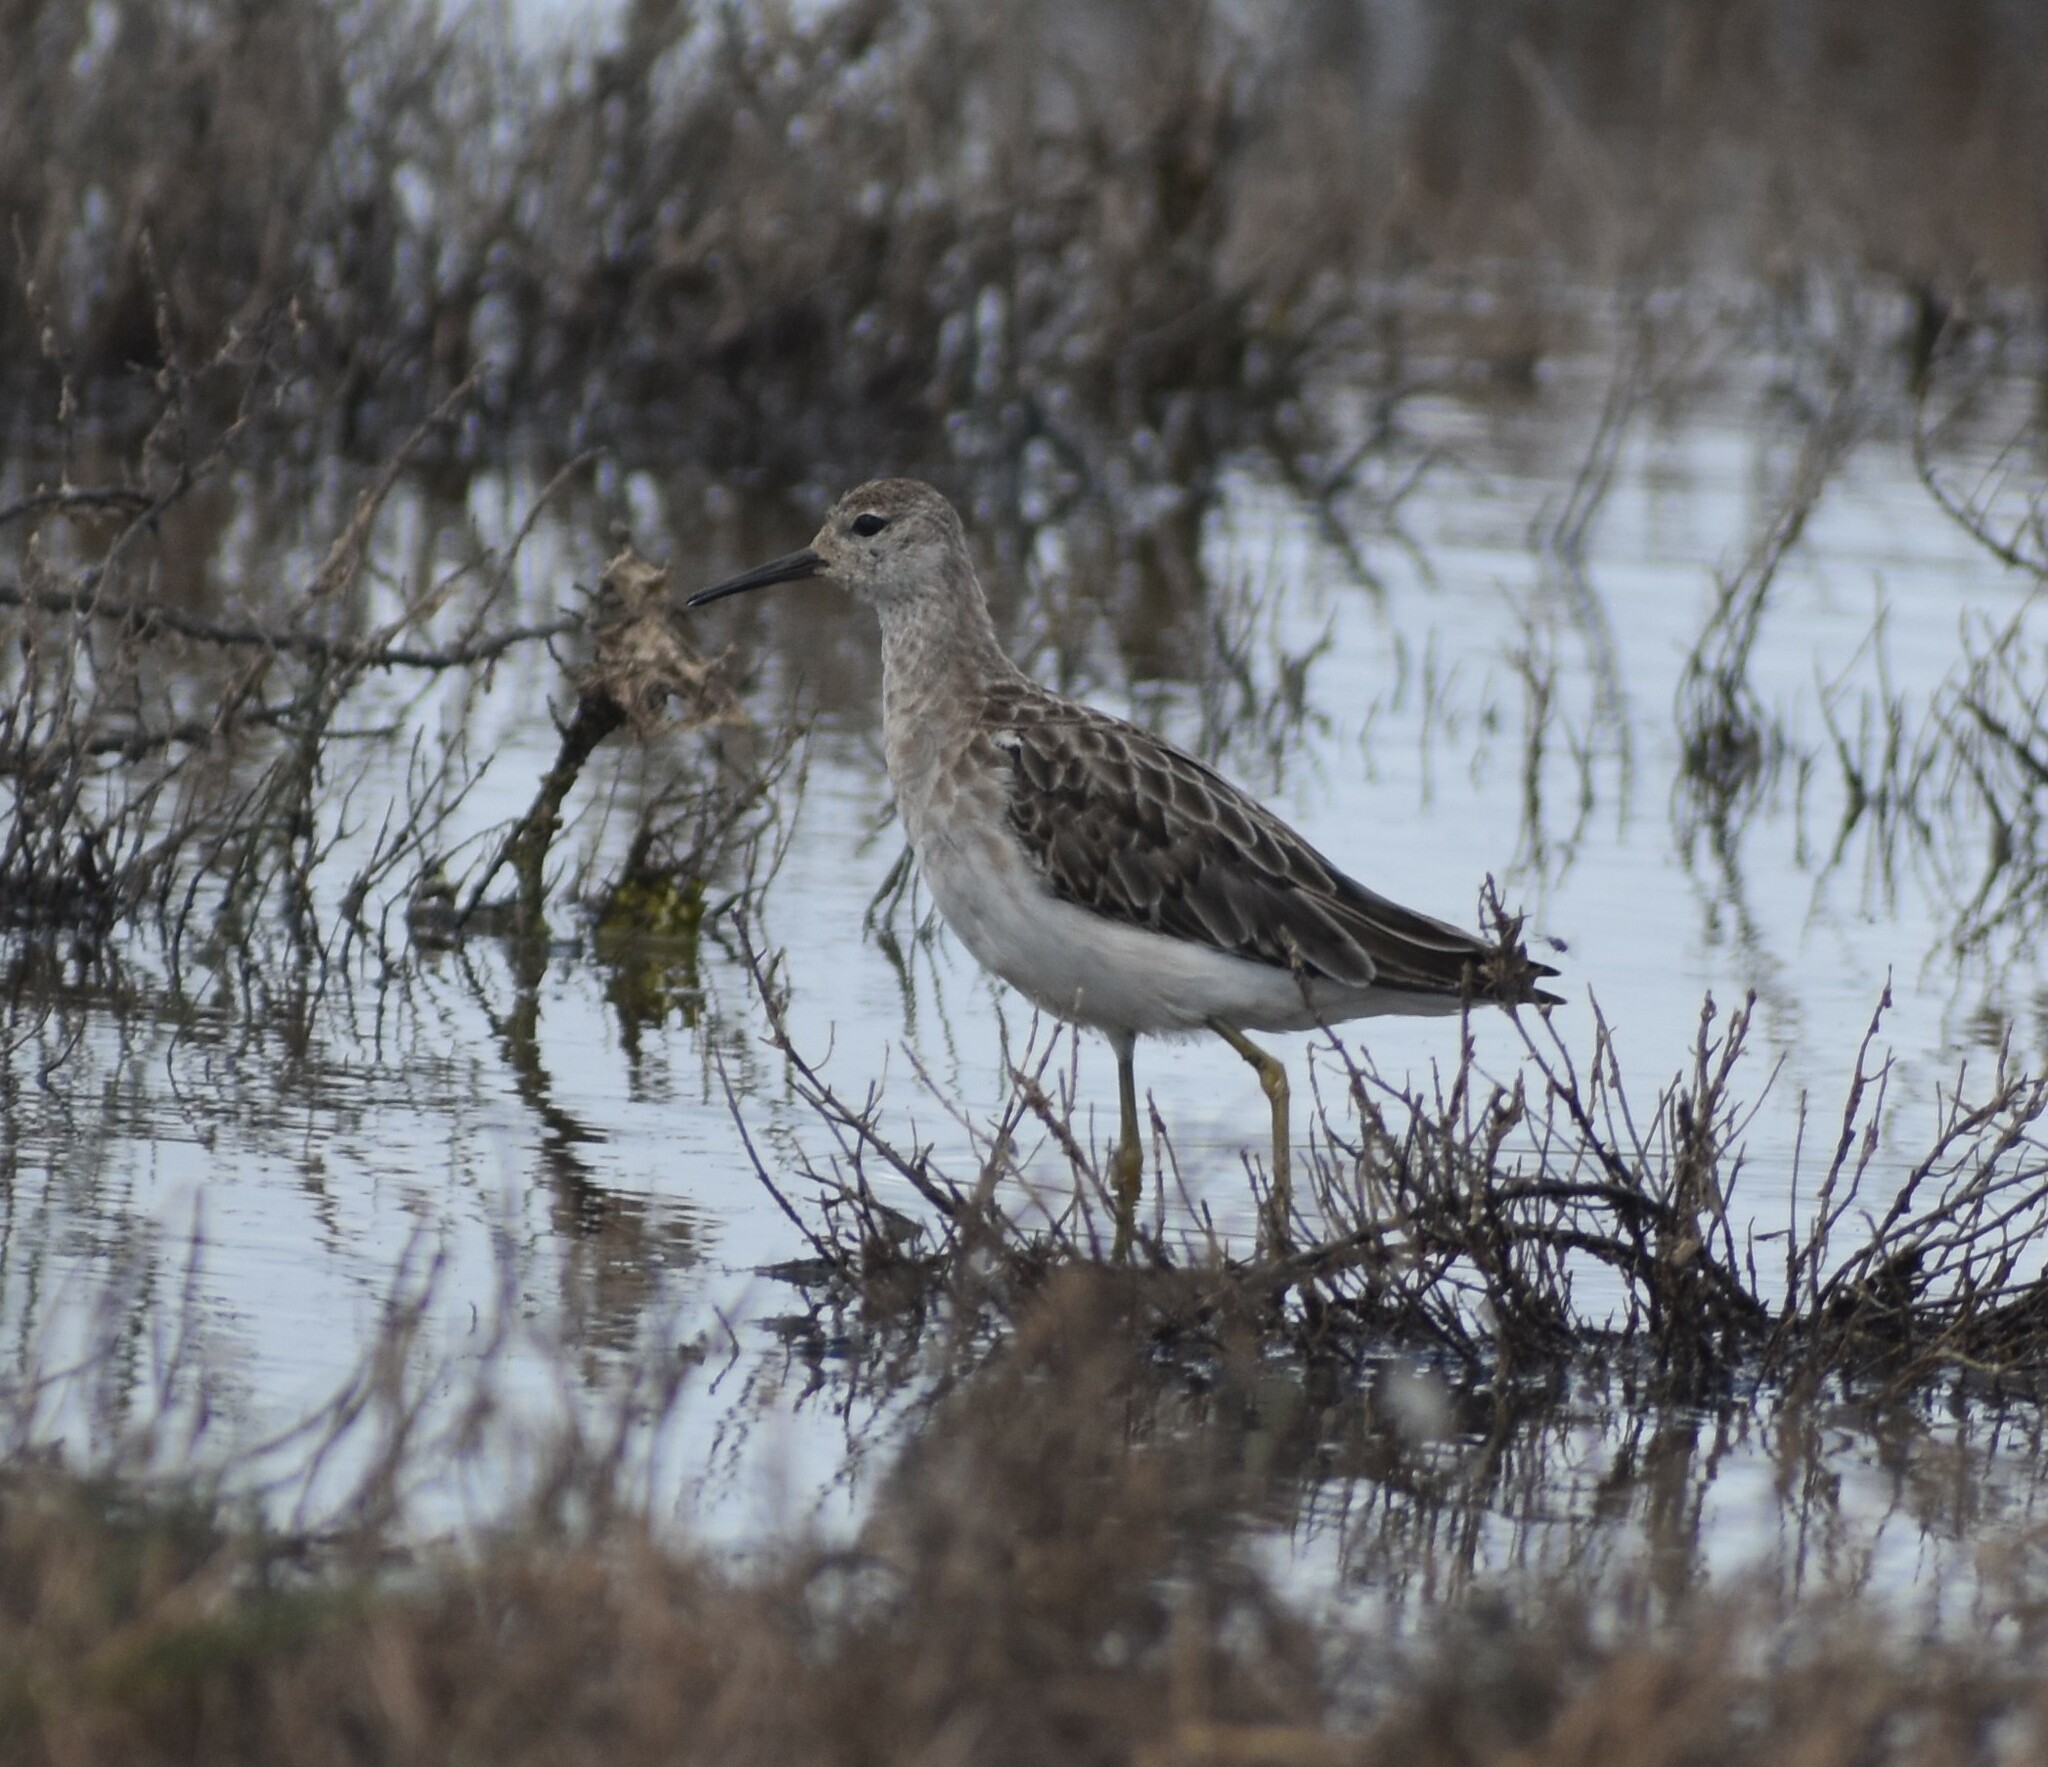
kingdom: Animalia
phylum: Chordata
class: Aves
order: Charadriiformes
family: Scolopacidae
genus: Calidris
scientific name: Calidris pugnax
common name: Ruff
